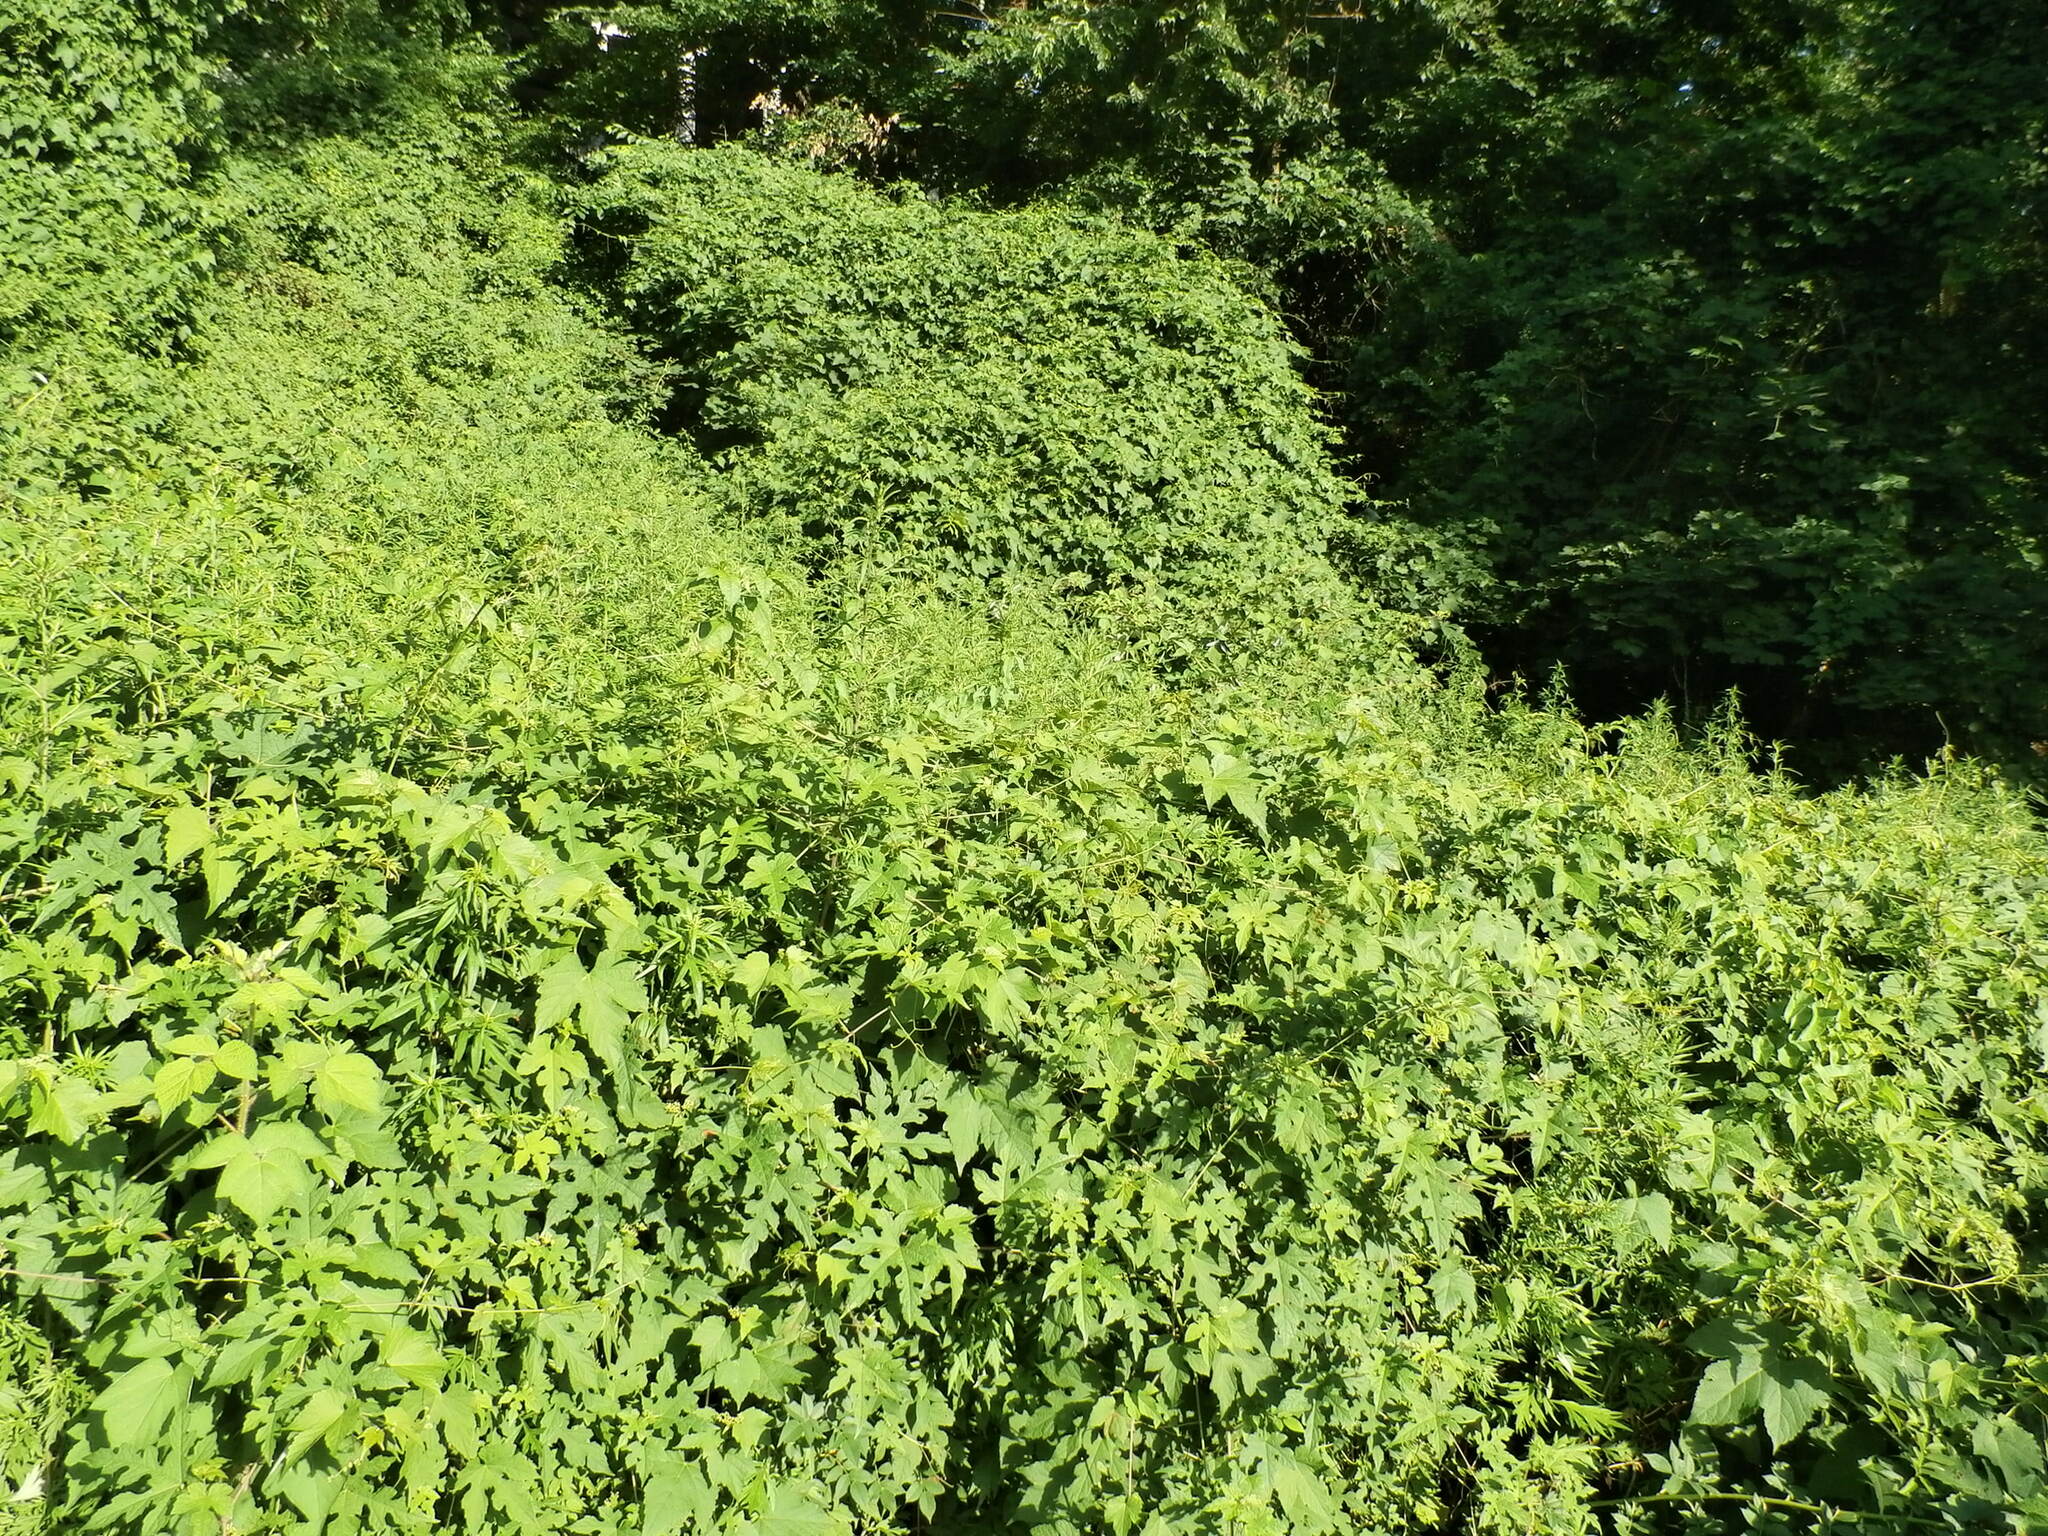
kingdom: Plantae
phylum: Tracheophyta
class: Magnoliopsida
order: Vitales
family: Vitaceae
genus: Ampelopsis
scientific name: Ampelopsis glandulosa
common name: Amur peppervine
